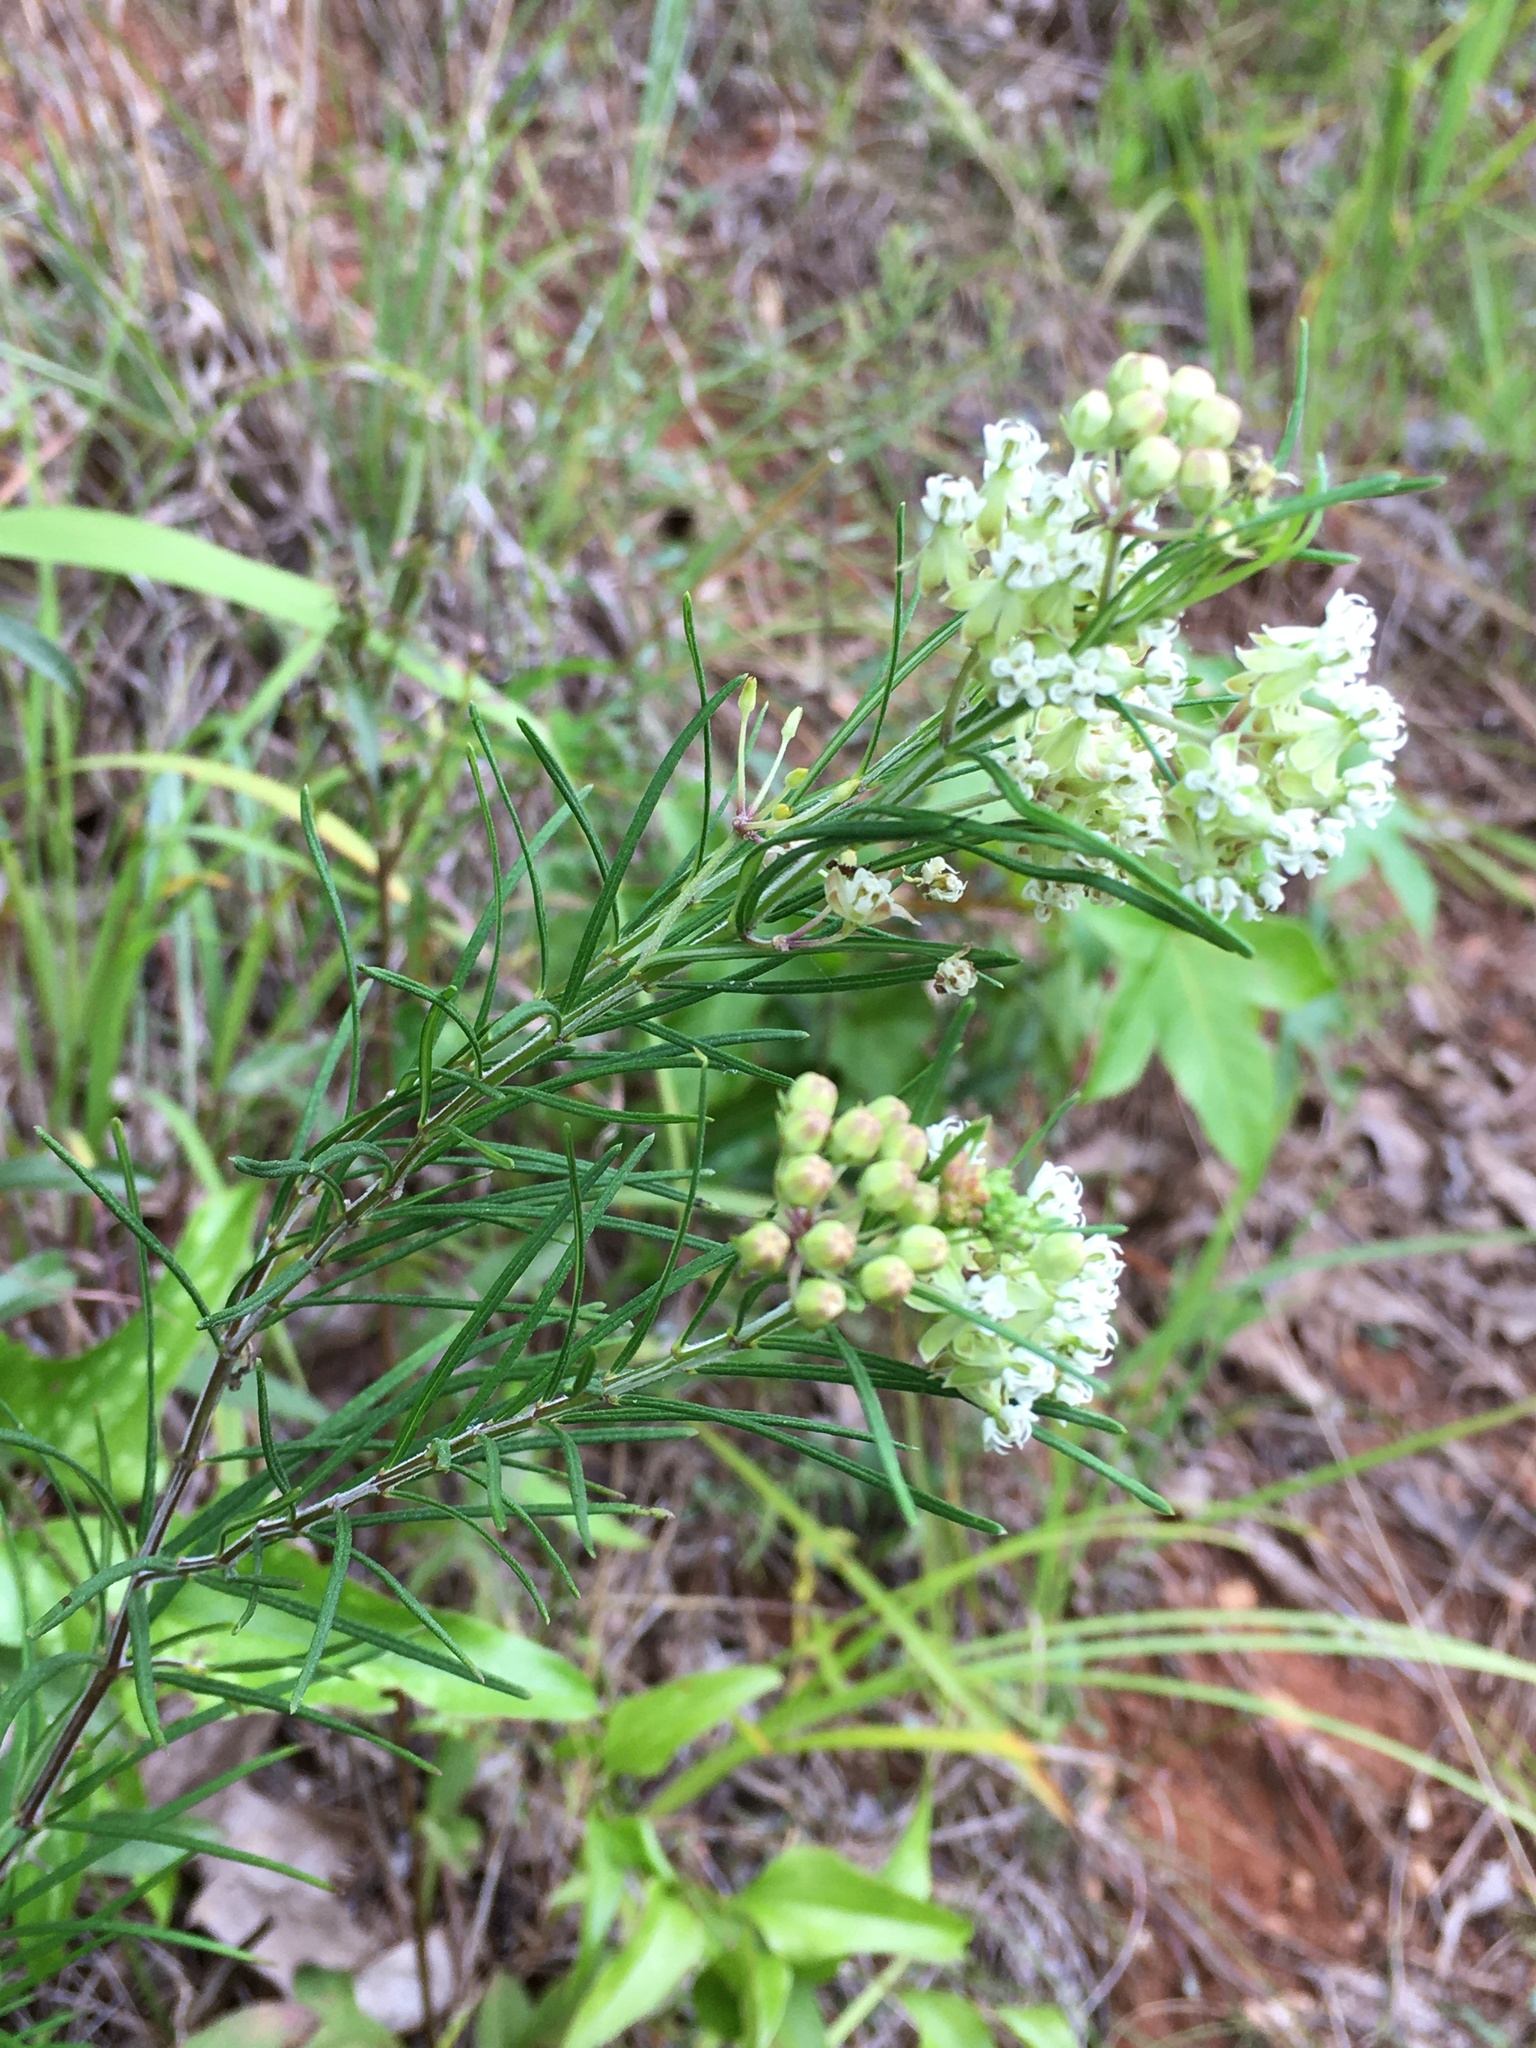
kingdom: Plantae
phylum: Tracheophyta
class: Magnoliopsida
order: Gentianales
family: Apocynaceae
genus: Asclepias
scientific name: Asclepias verticillata
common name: Eastern whorled milkweed
